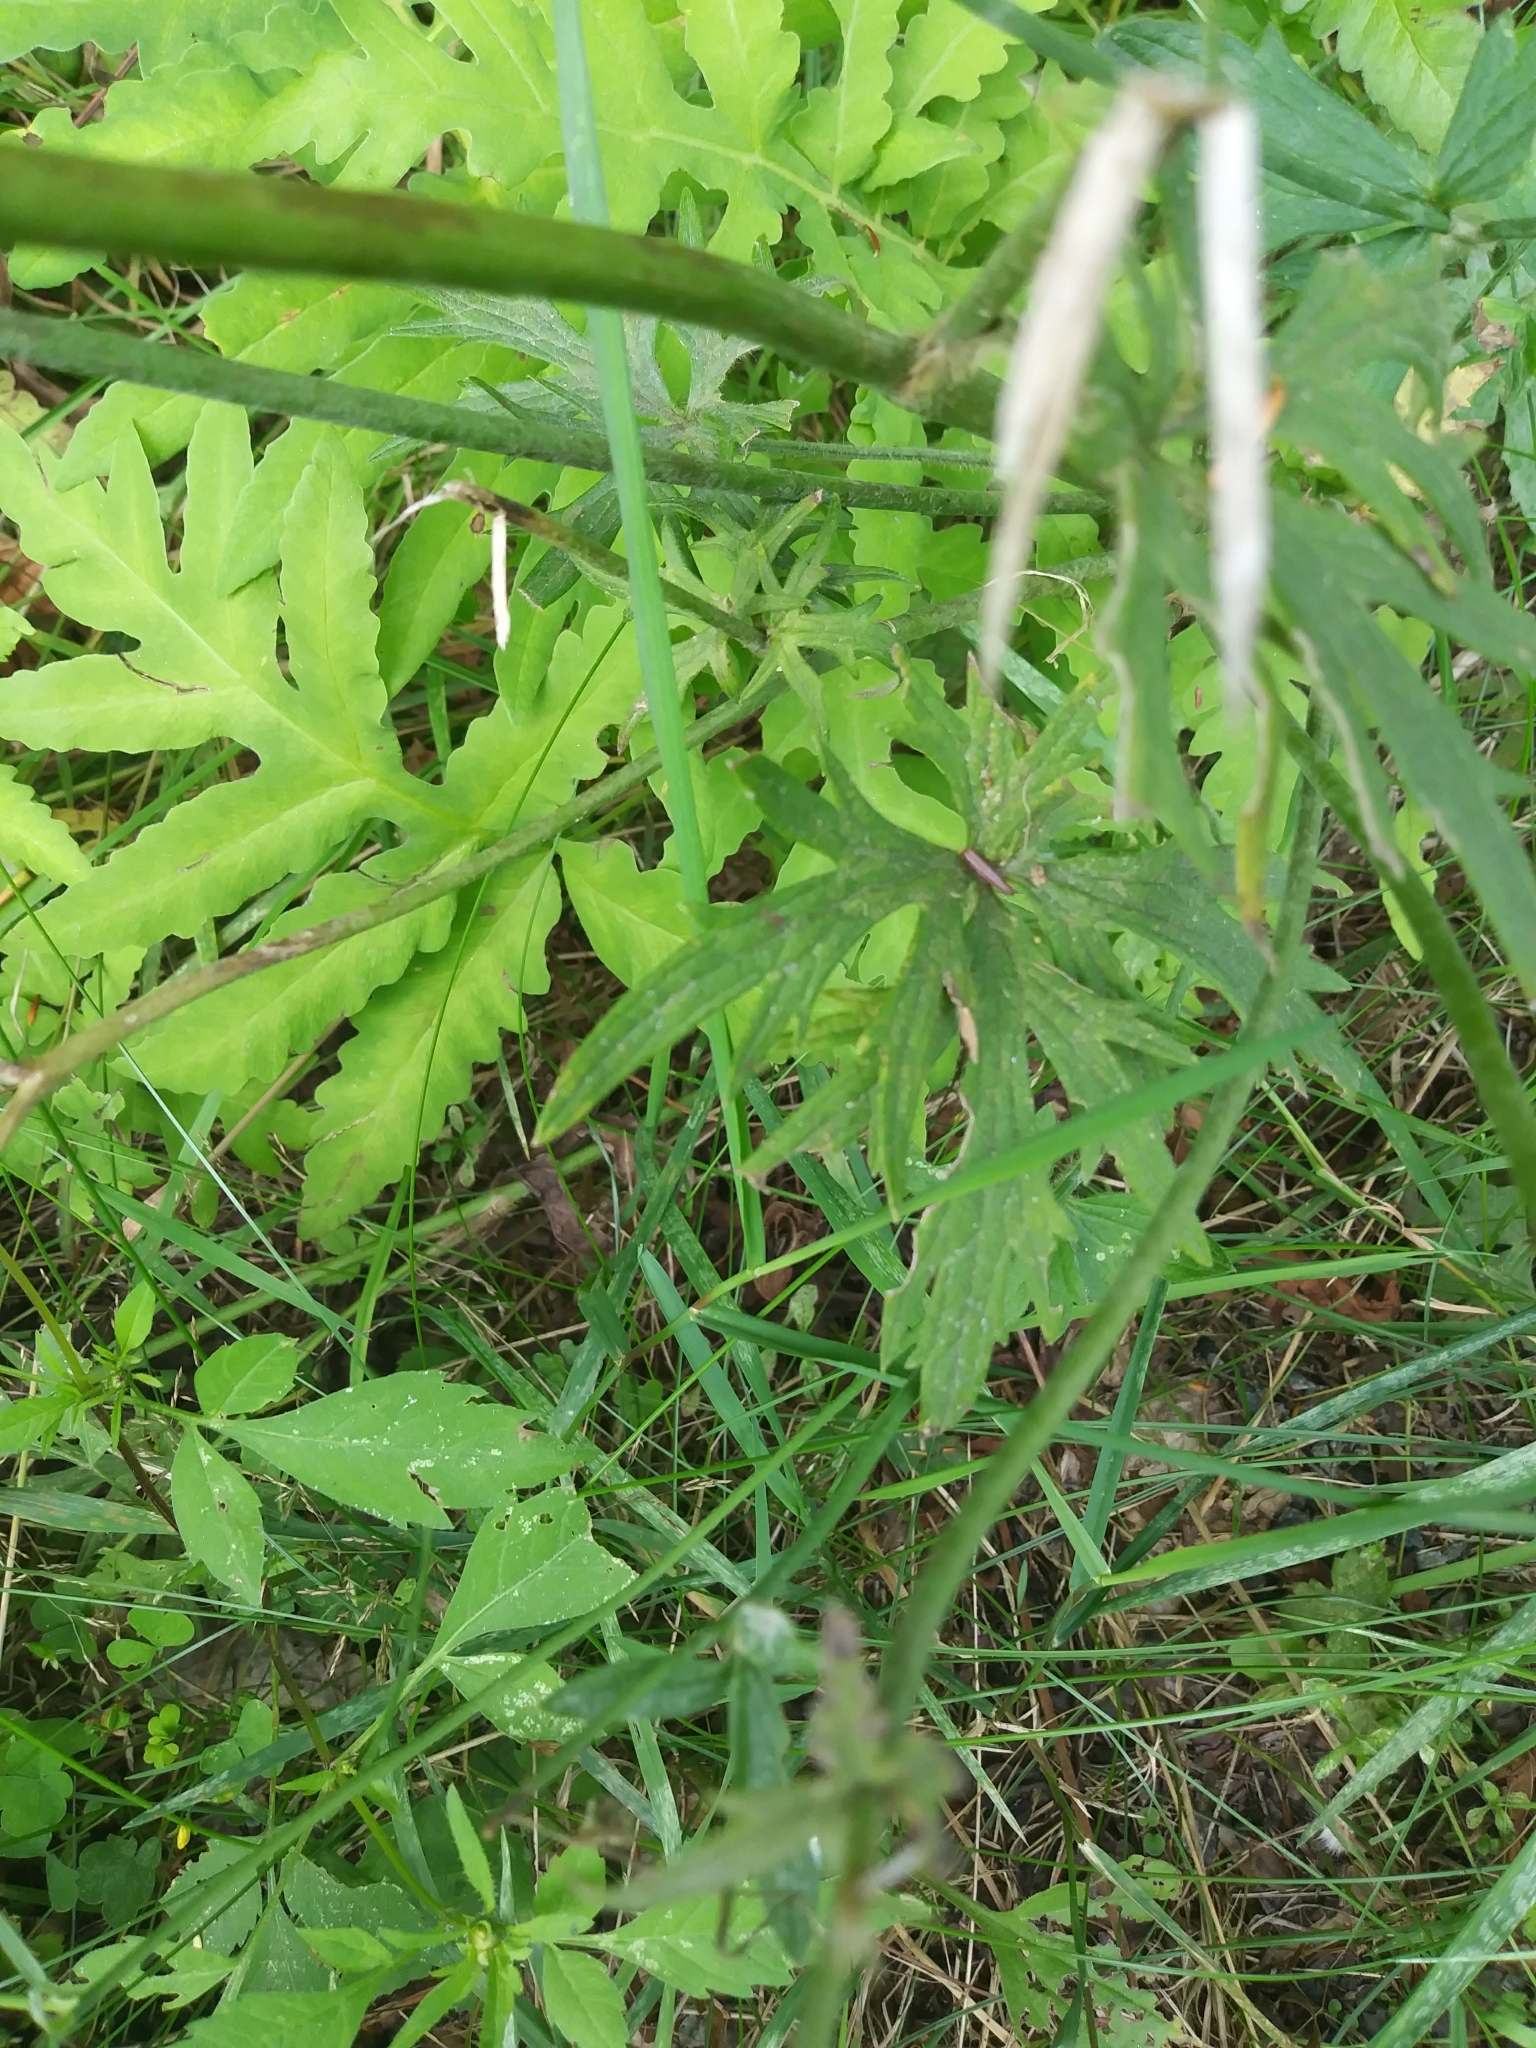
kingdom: Plantae
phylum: Tracheophyta
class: Magnoliopsida
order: Ranunculales
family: Ranunculaceae
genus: Ranunculus
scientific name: Ranunculus acris
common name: Meadow buttercup
